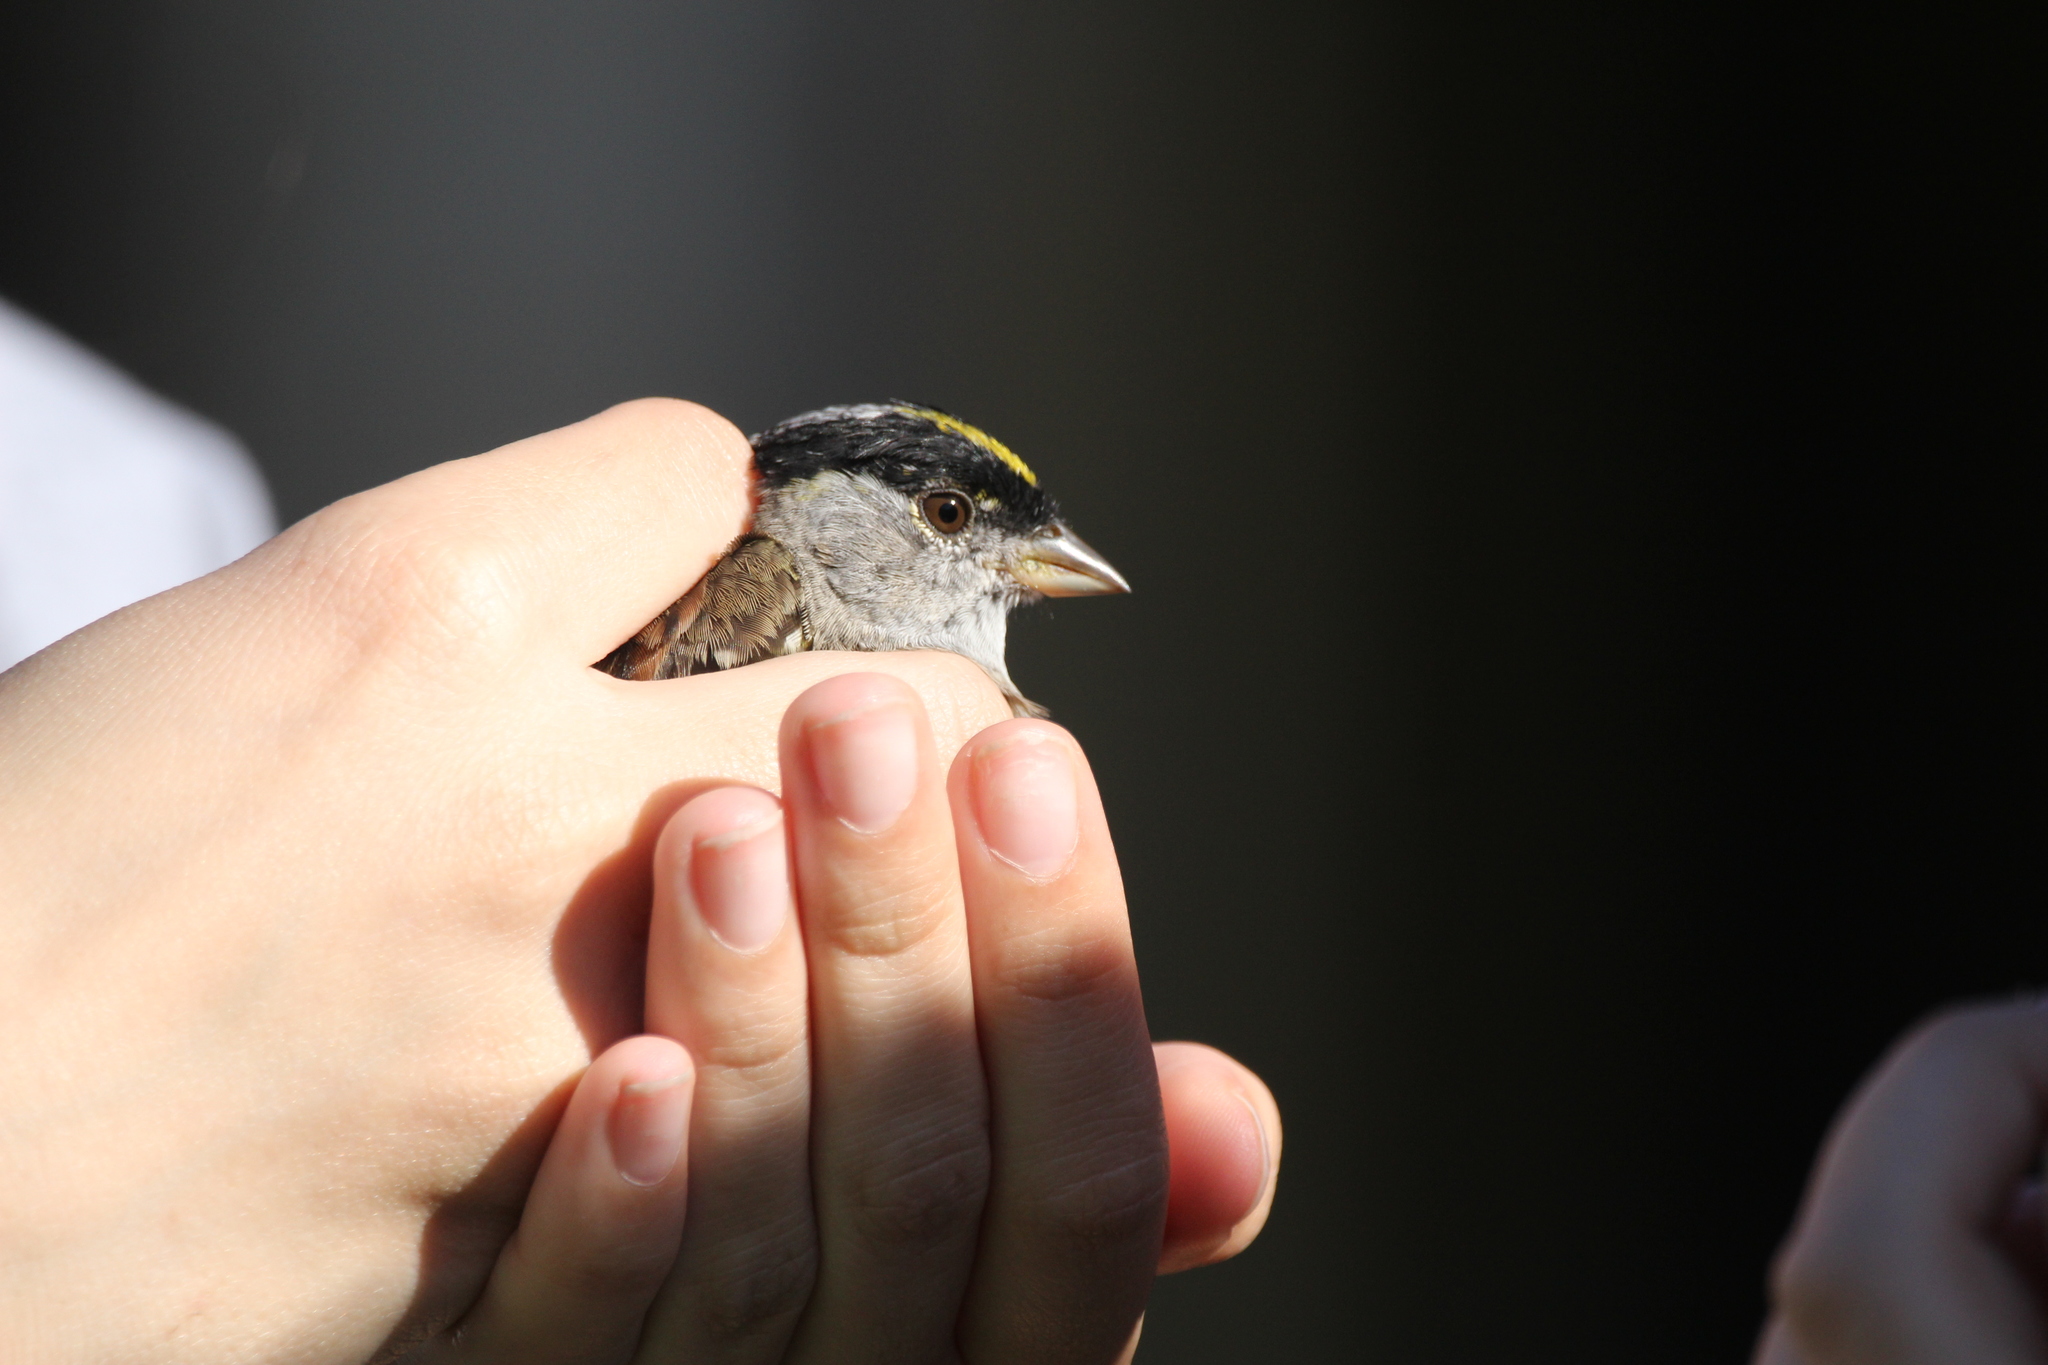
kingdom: Animalia
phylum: Chordata
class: Aves
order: Passeriformes
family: Passerellidae
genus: Zonotrichia
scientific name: Zonotrichia atricapilla
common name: Golden-crowned sparrow
